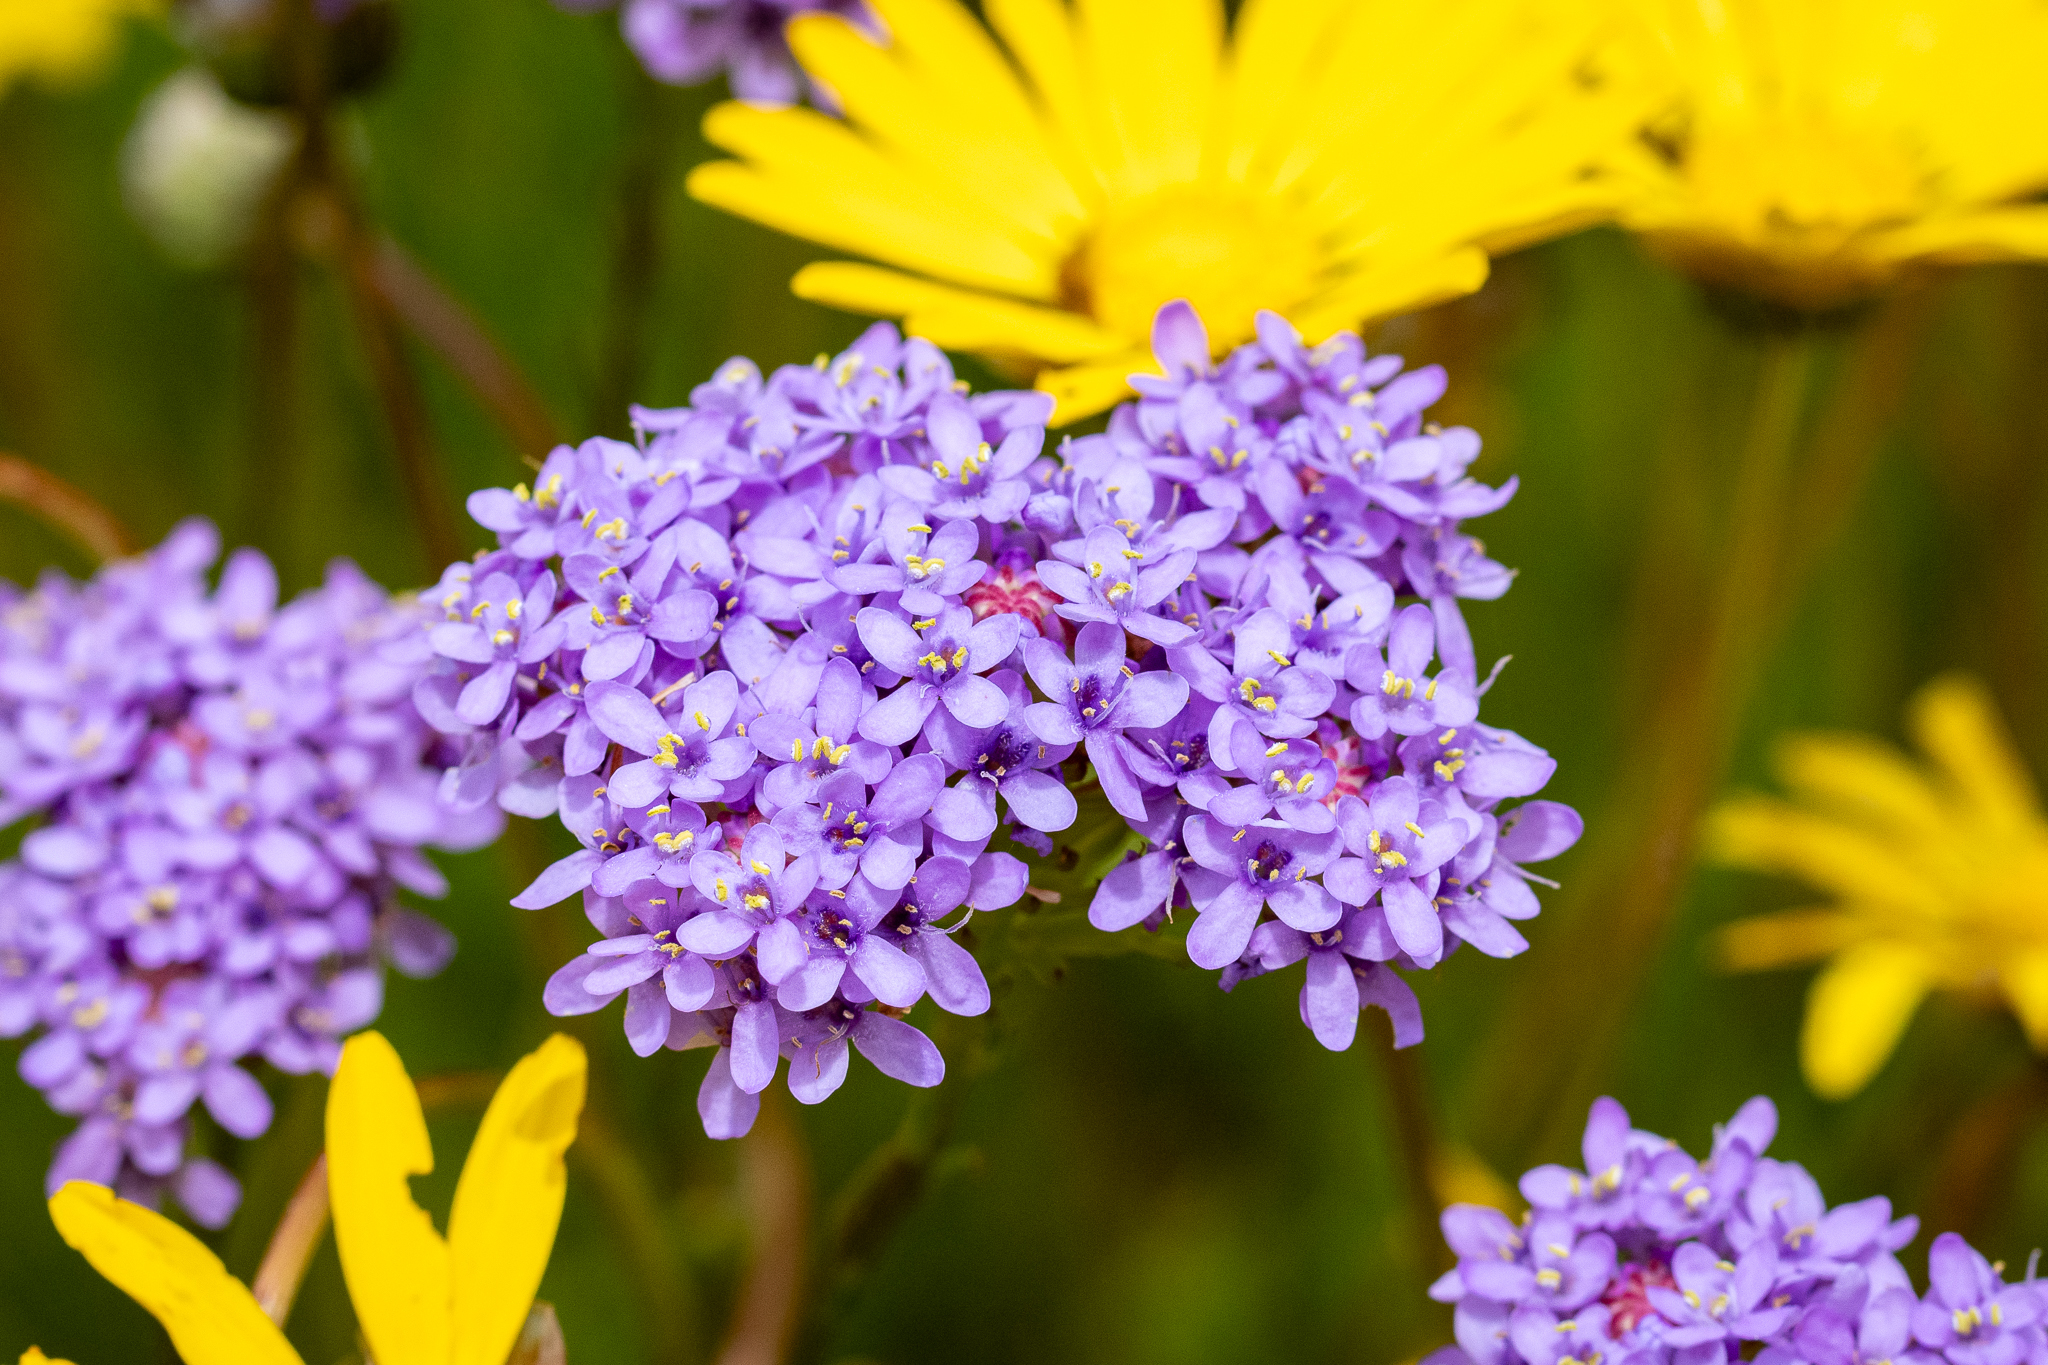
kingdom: Plantae
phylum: Tracheophyta
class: Magnoliopsida
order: Lamiales
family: Scrophulariaceae
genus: Pseudoselago
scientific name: Pseudoselago spuria
